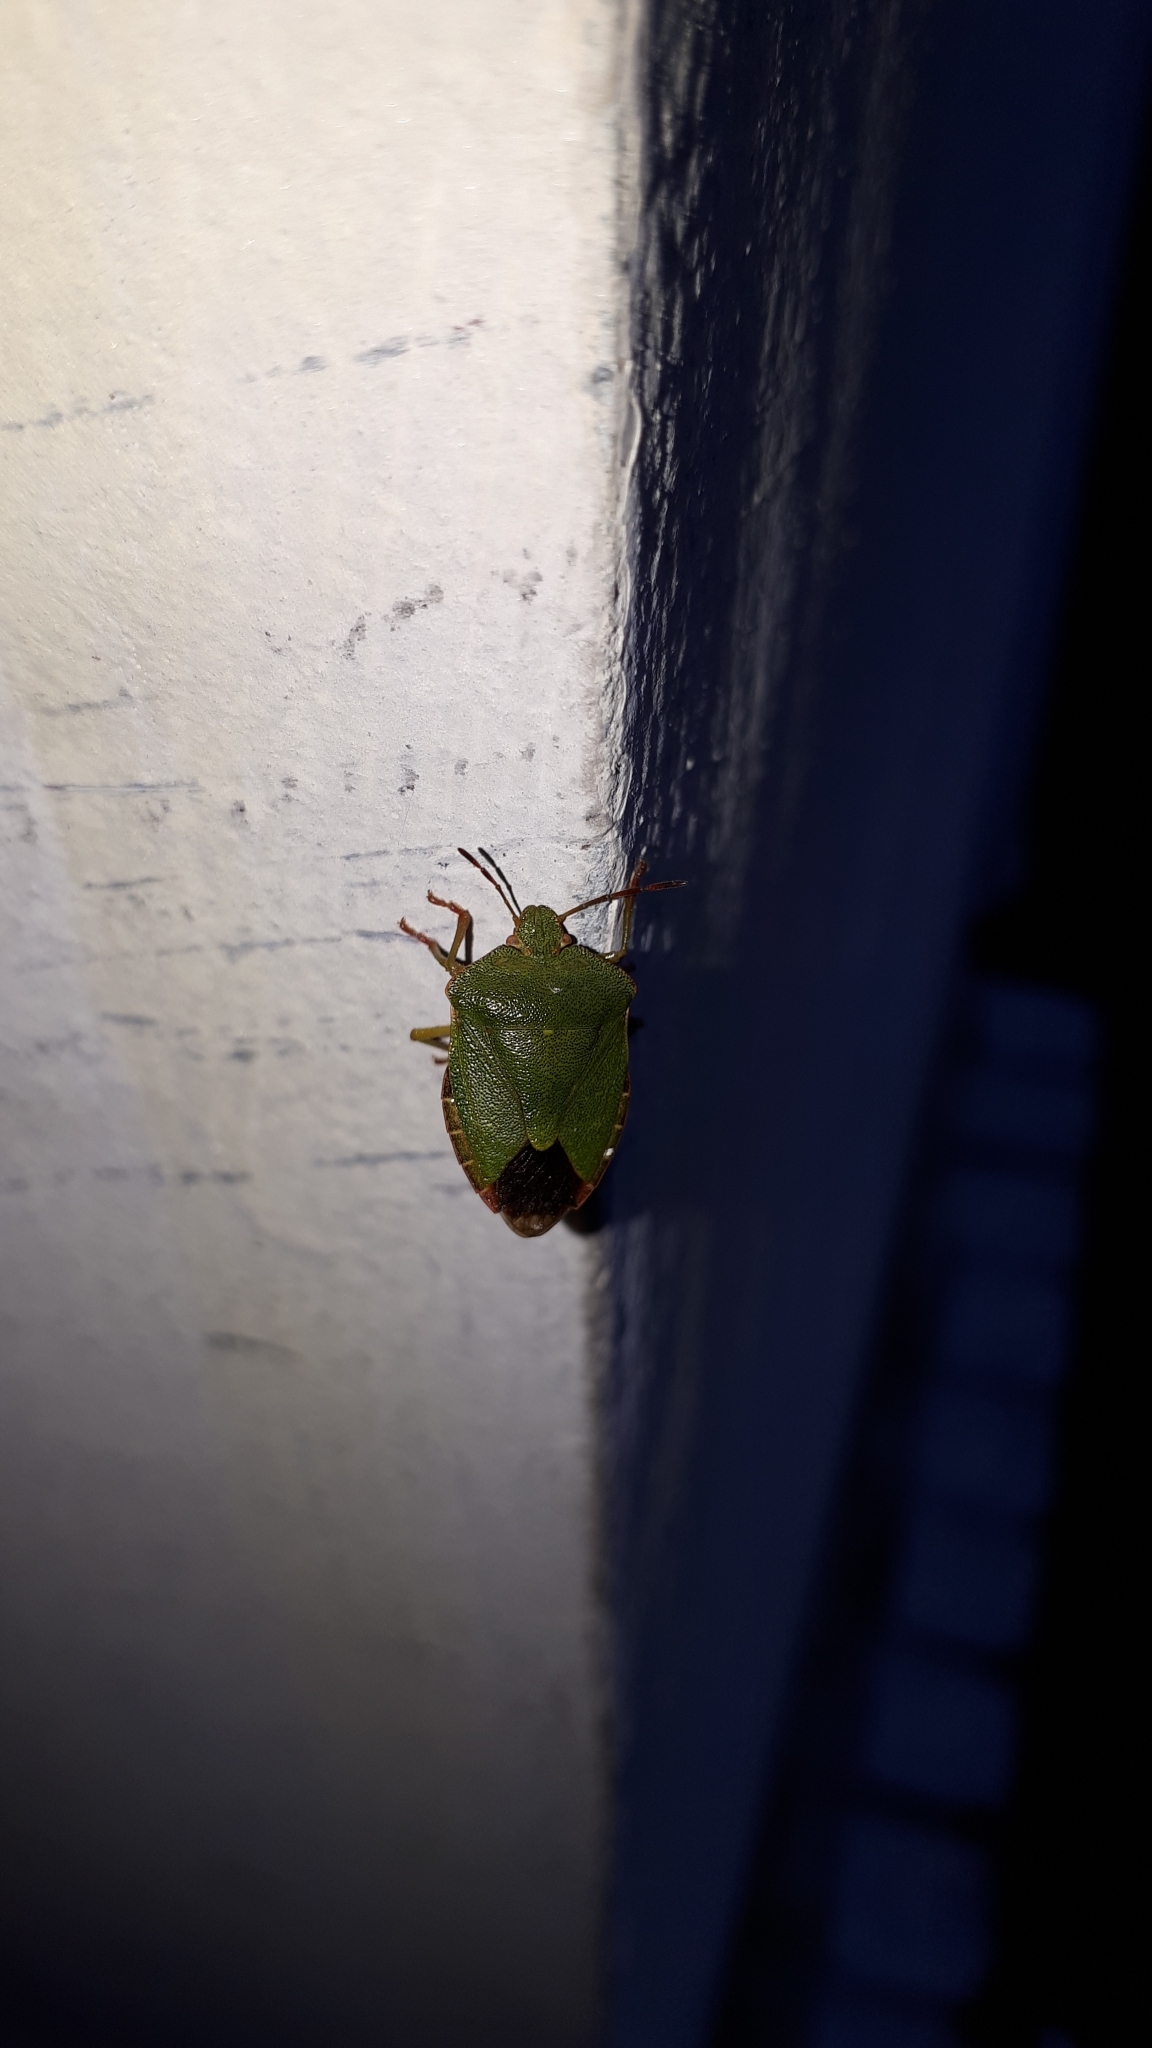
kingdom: Animalia
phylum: Arthropoda
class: Insecta
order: Hemiptera
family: Pentatomidae
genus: Palomena
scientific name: Palomena prasina
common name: Green shieldbug
